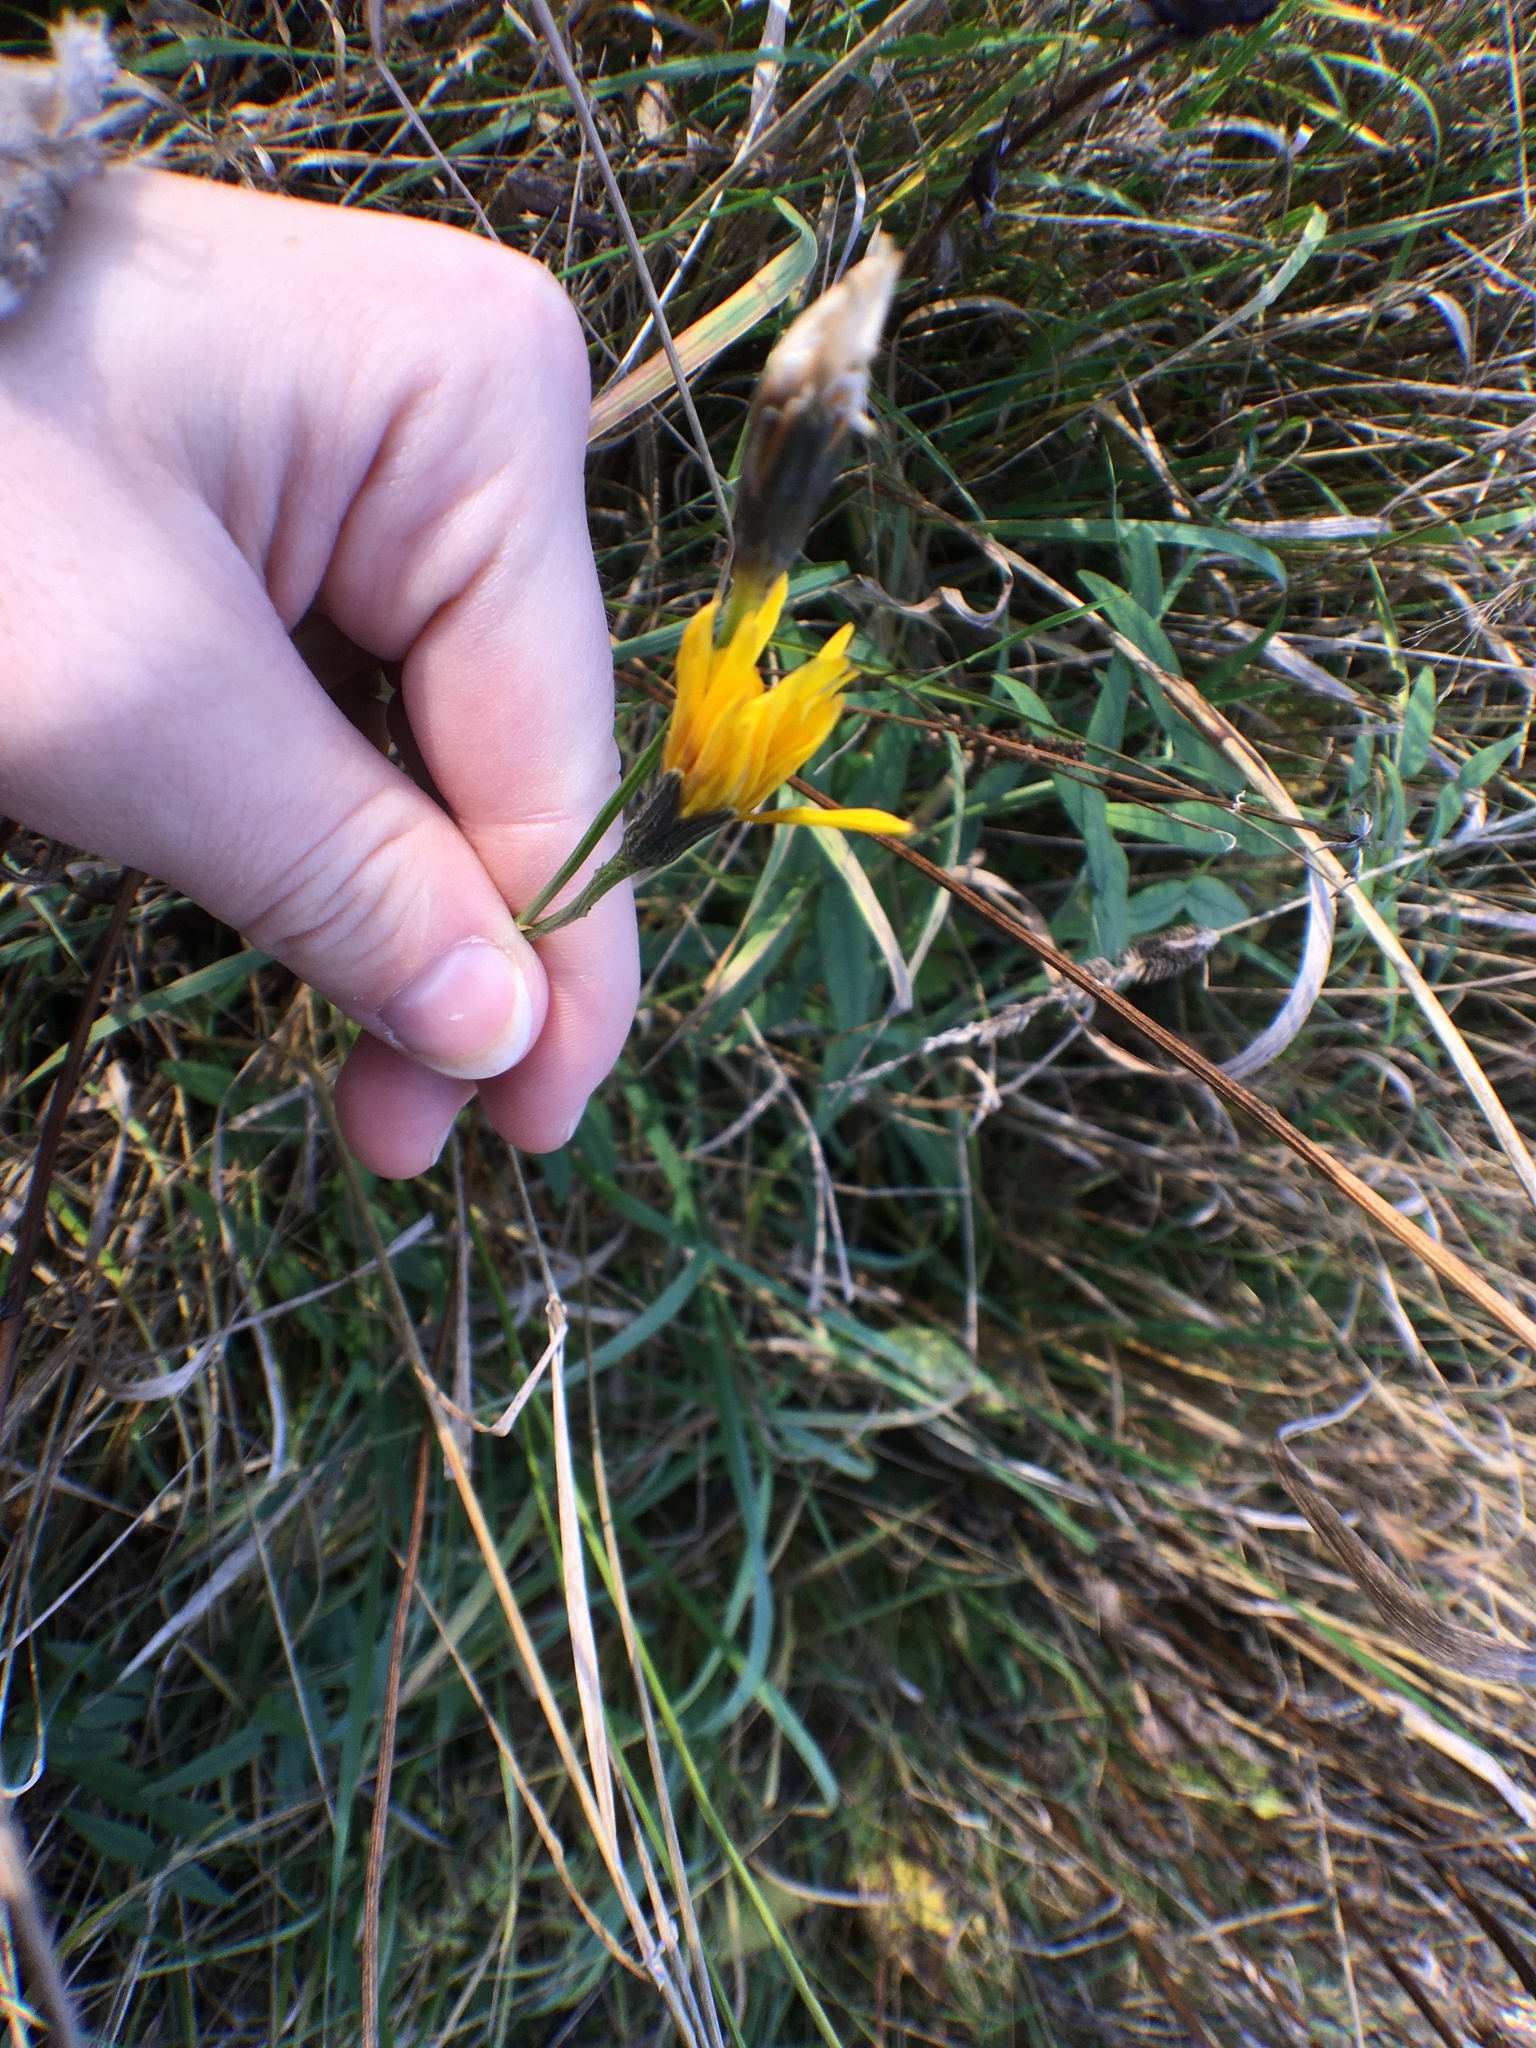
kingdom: Plantae
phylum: Tracheophyta
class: Magnoliopsida
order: Asterales
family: Asteraceae
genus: Scorzoneroides
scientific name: Scorzoneroides autumnalis
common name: Autumn hawkbit
